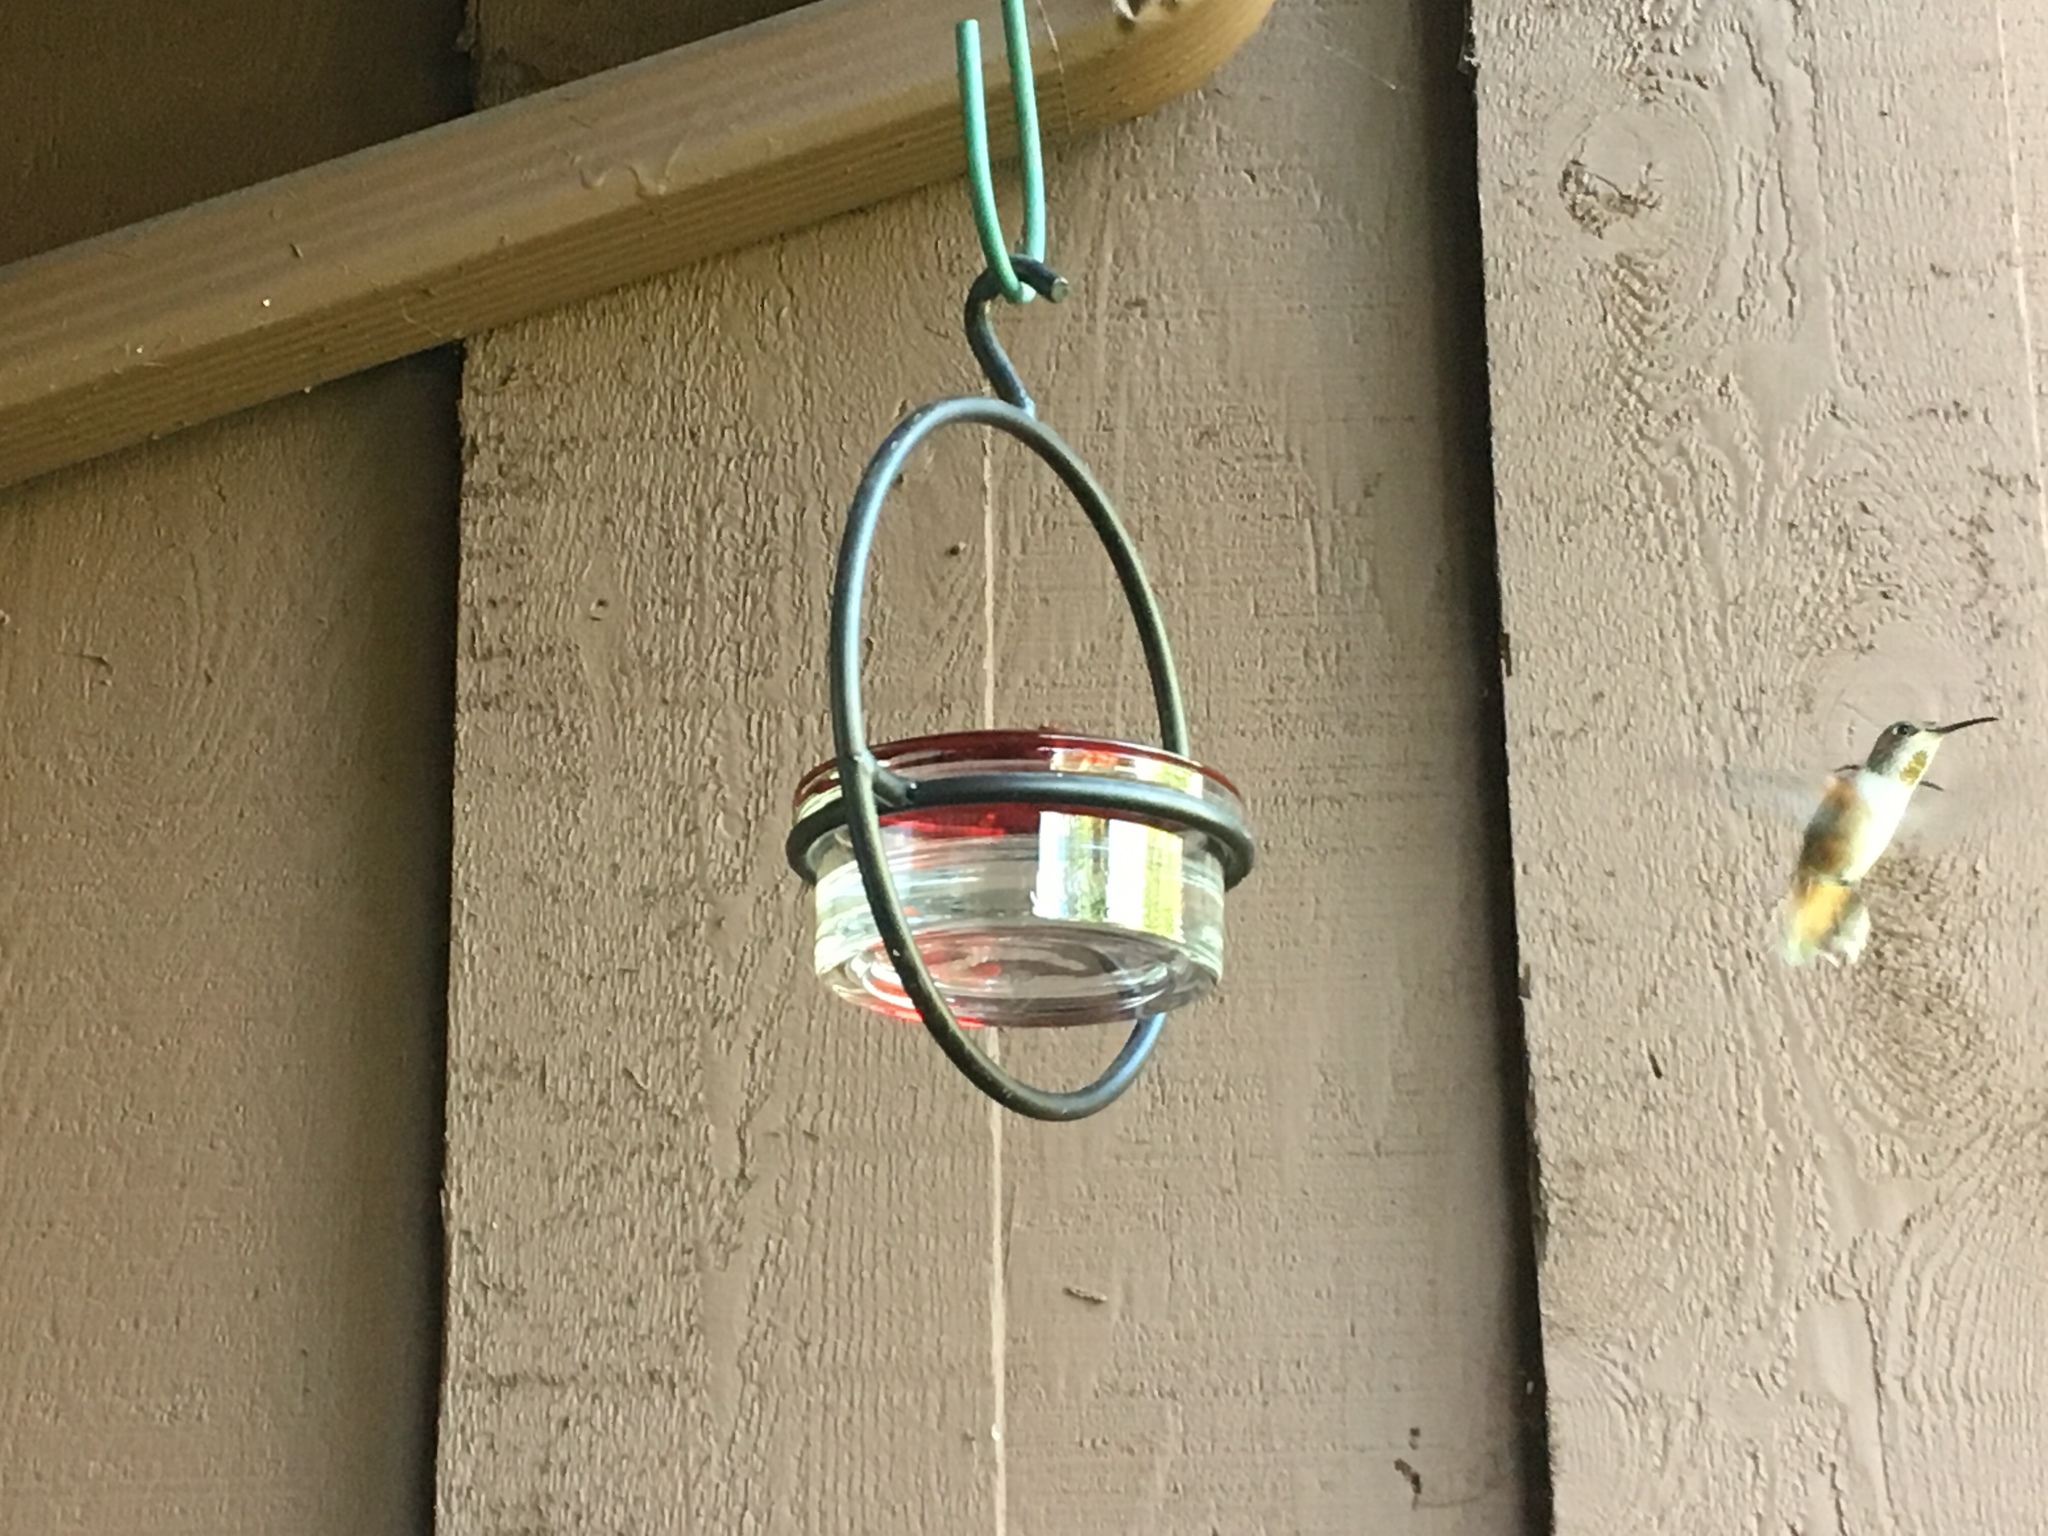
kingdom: Animalia
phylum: Chordata
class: Aves
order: Apodiformes
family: Trochilidae
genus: Selasphorus
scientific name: Selasphorus sasin
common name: Allen's hummingbird
